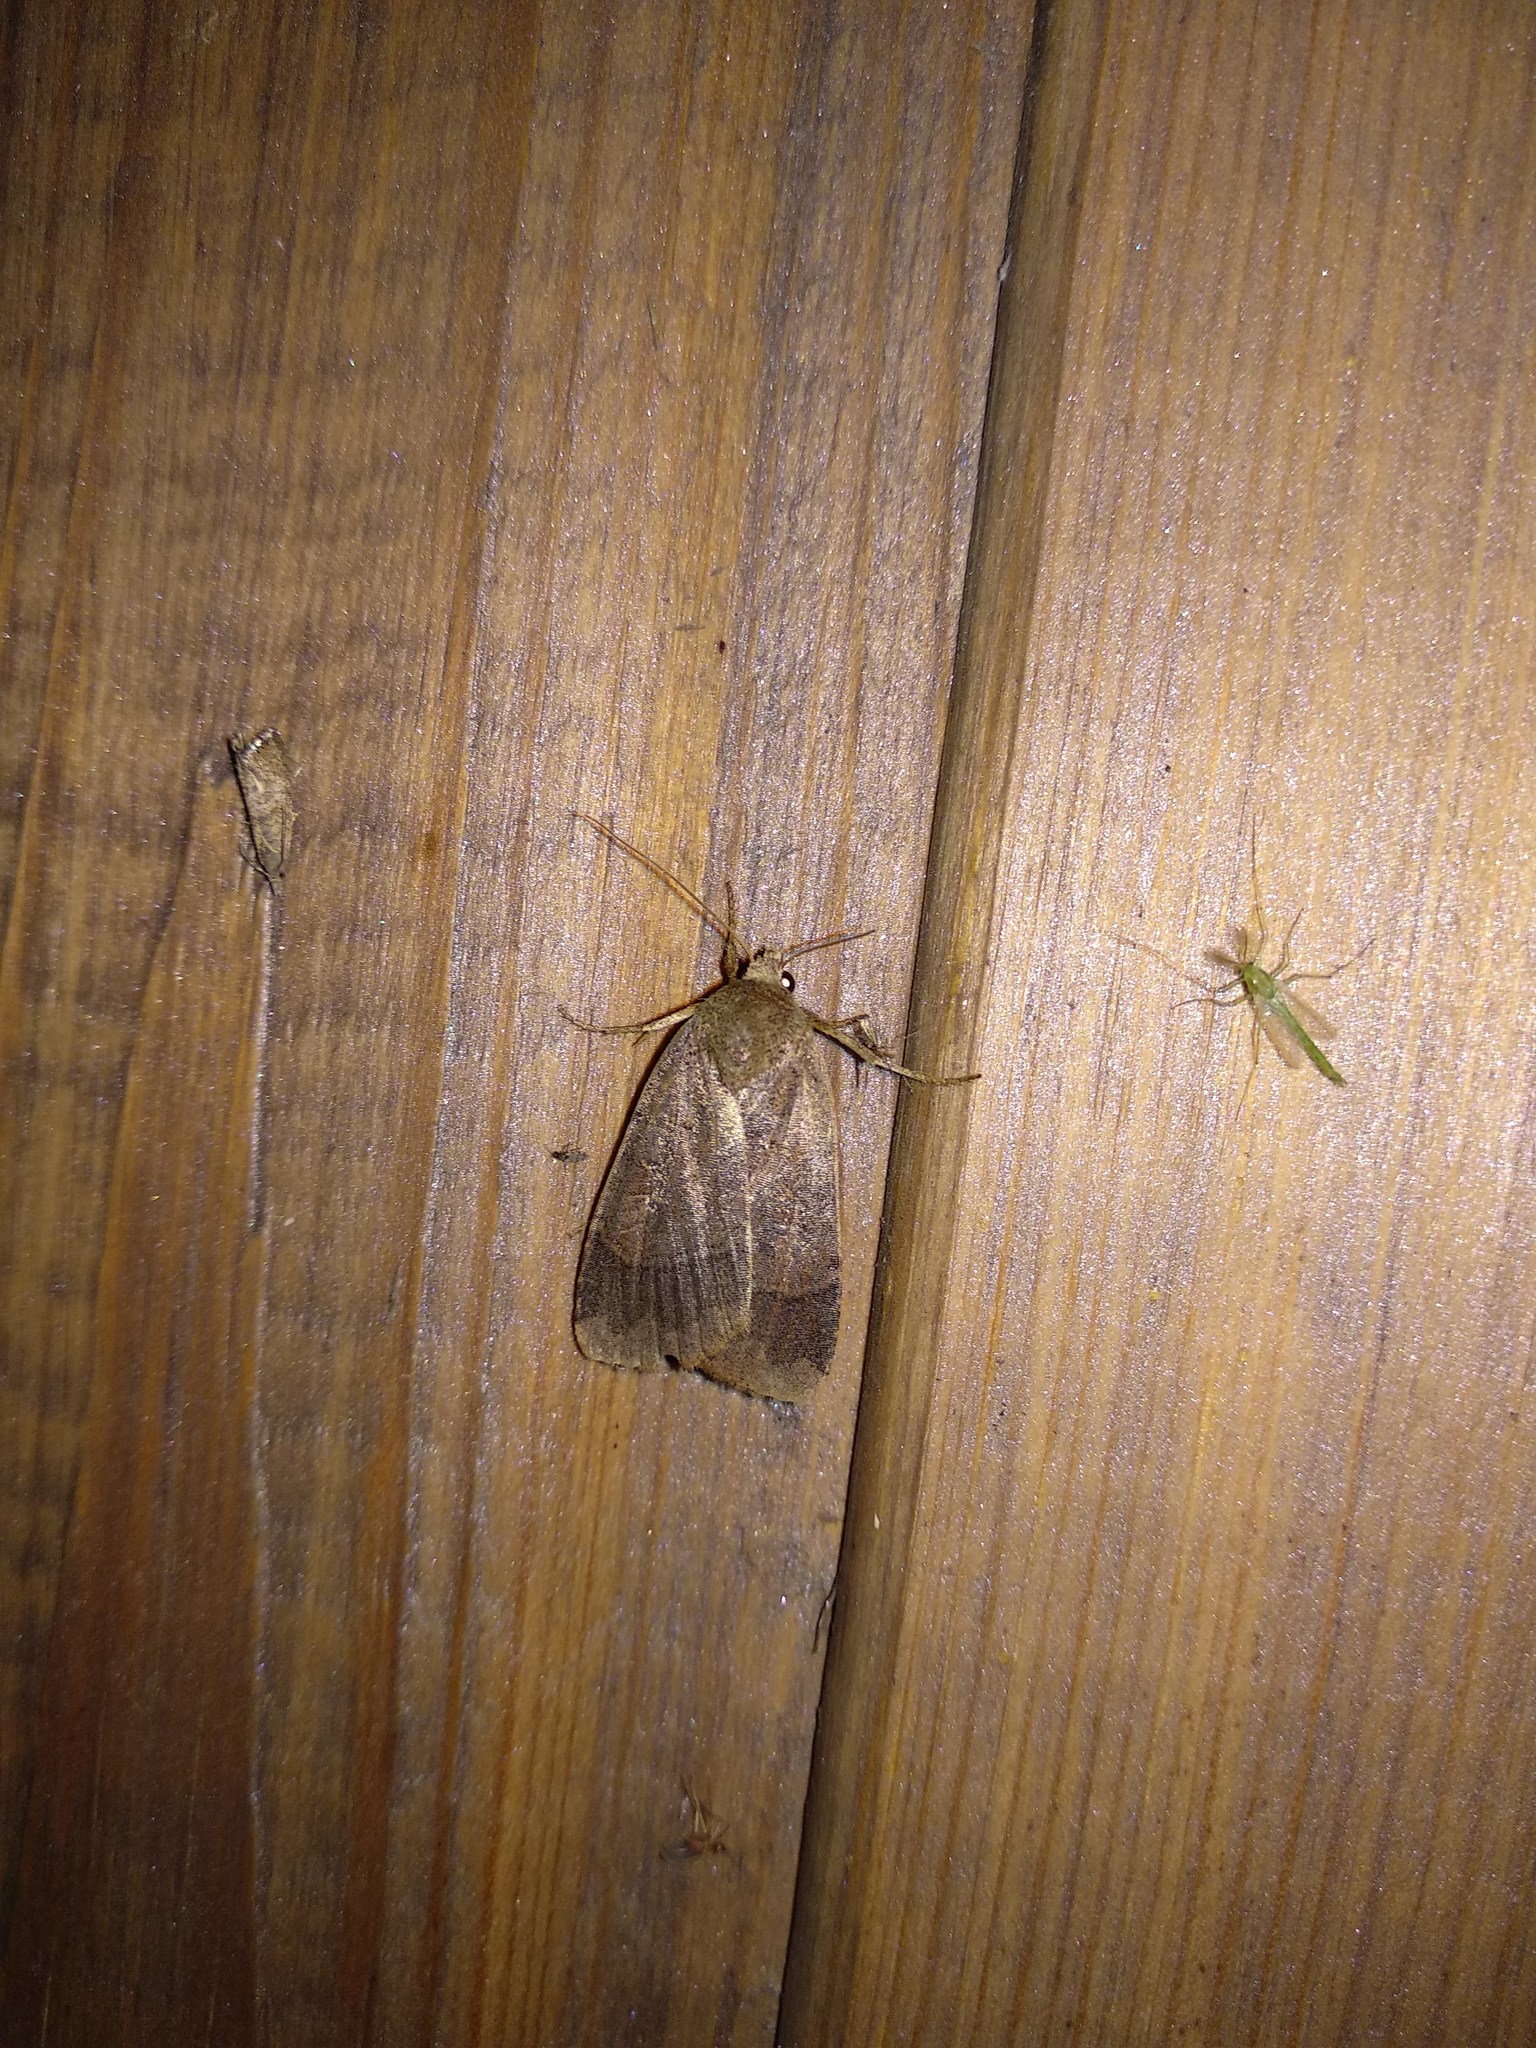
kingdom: Animalia
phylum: Arthropoda
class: Insecta
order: Lepidoptera
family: Noctuidae
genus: Sineugraphe
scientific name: Sineugraphe exusta
